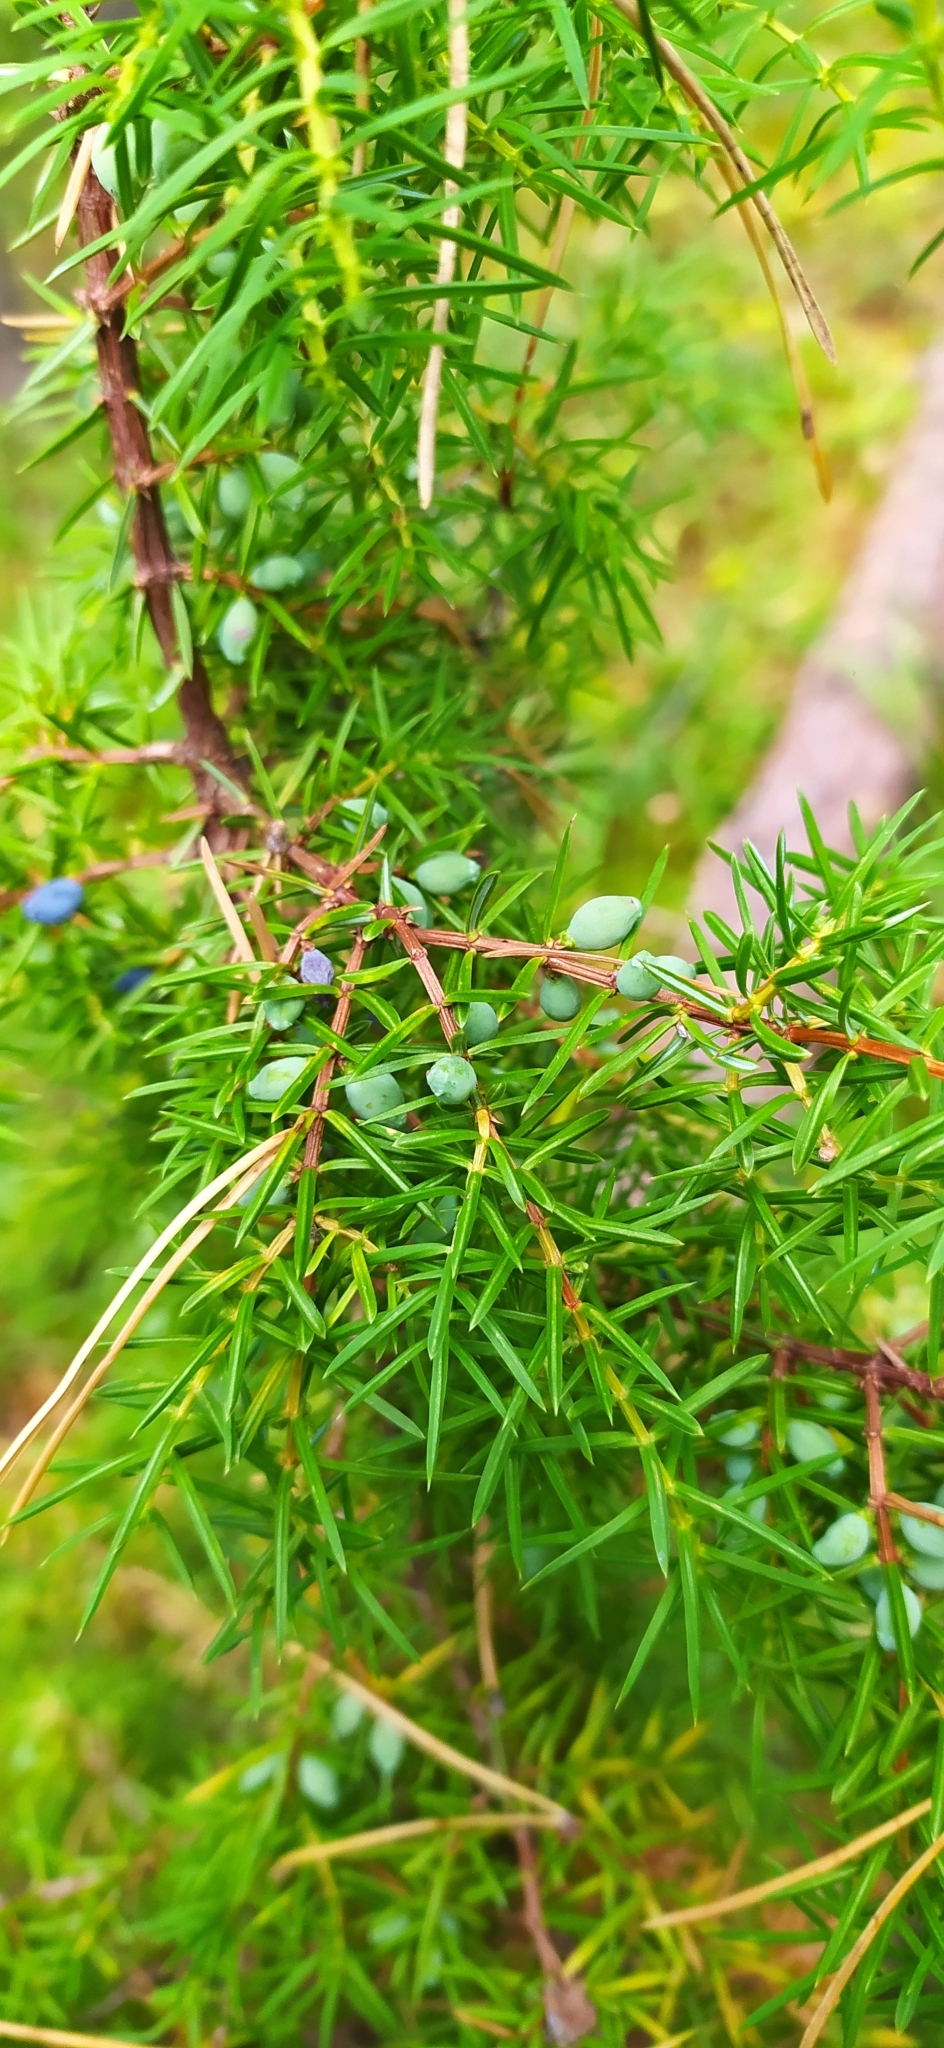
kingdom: Plantae
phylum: Tracheophyta
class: Pinopsida
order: Pinales
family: Cupressaceae
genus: Juniperus
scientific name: Juniperus communis
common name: Common juniper
